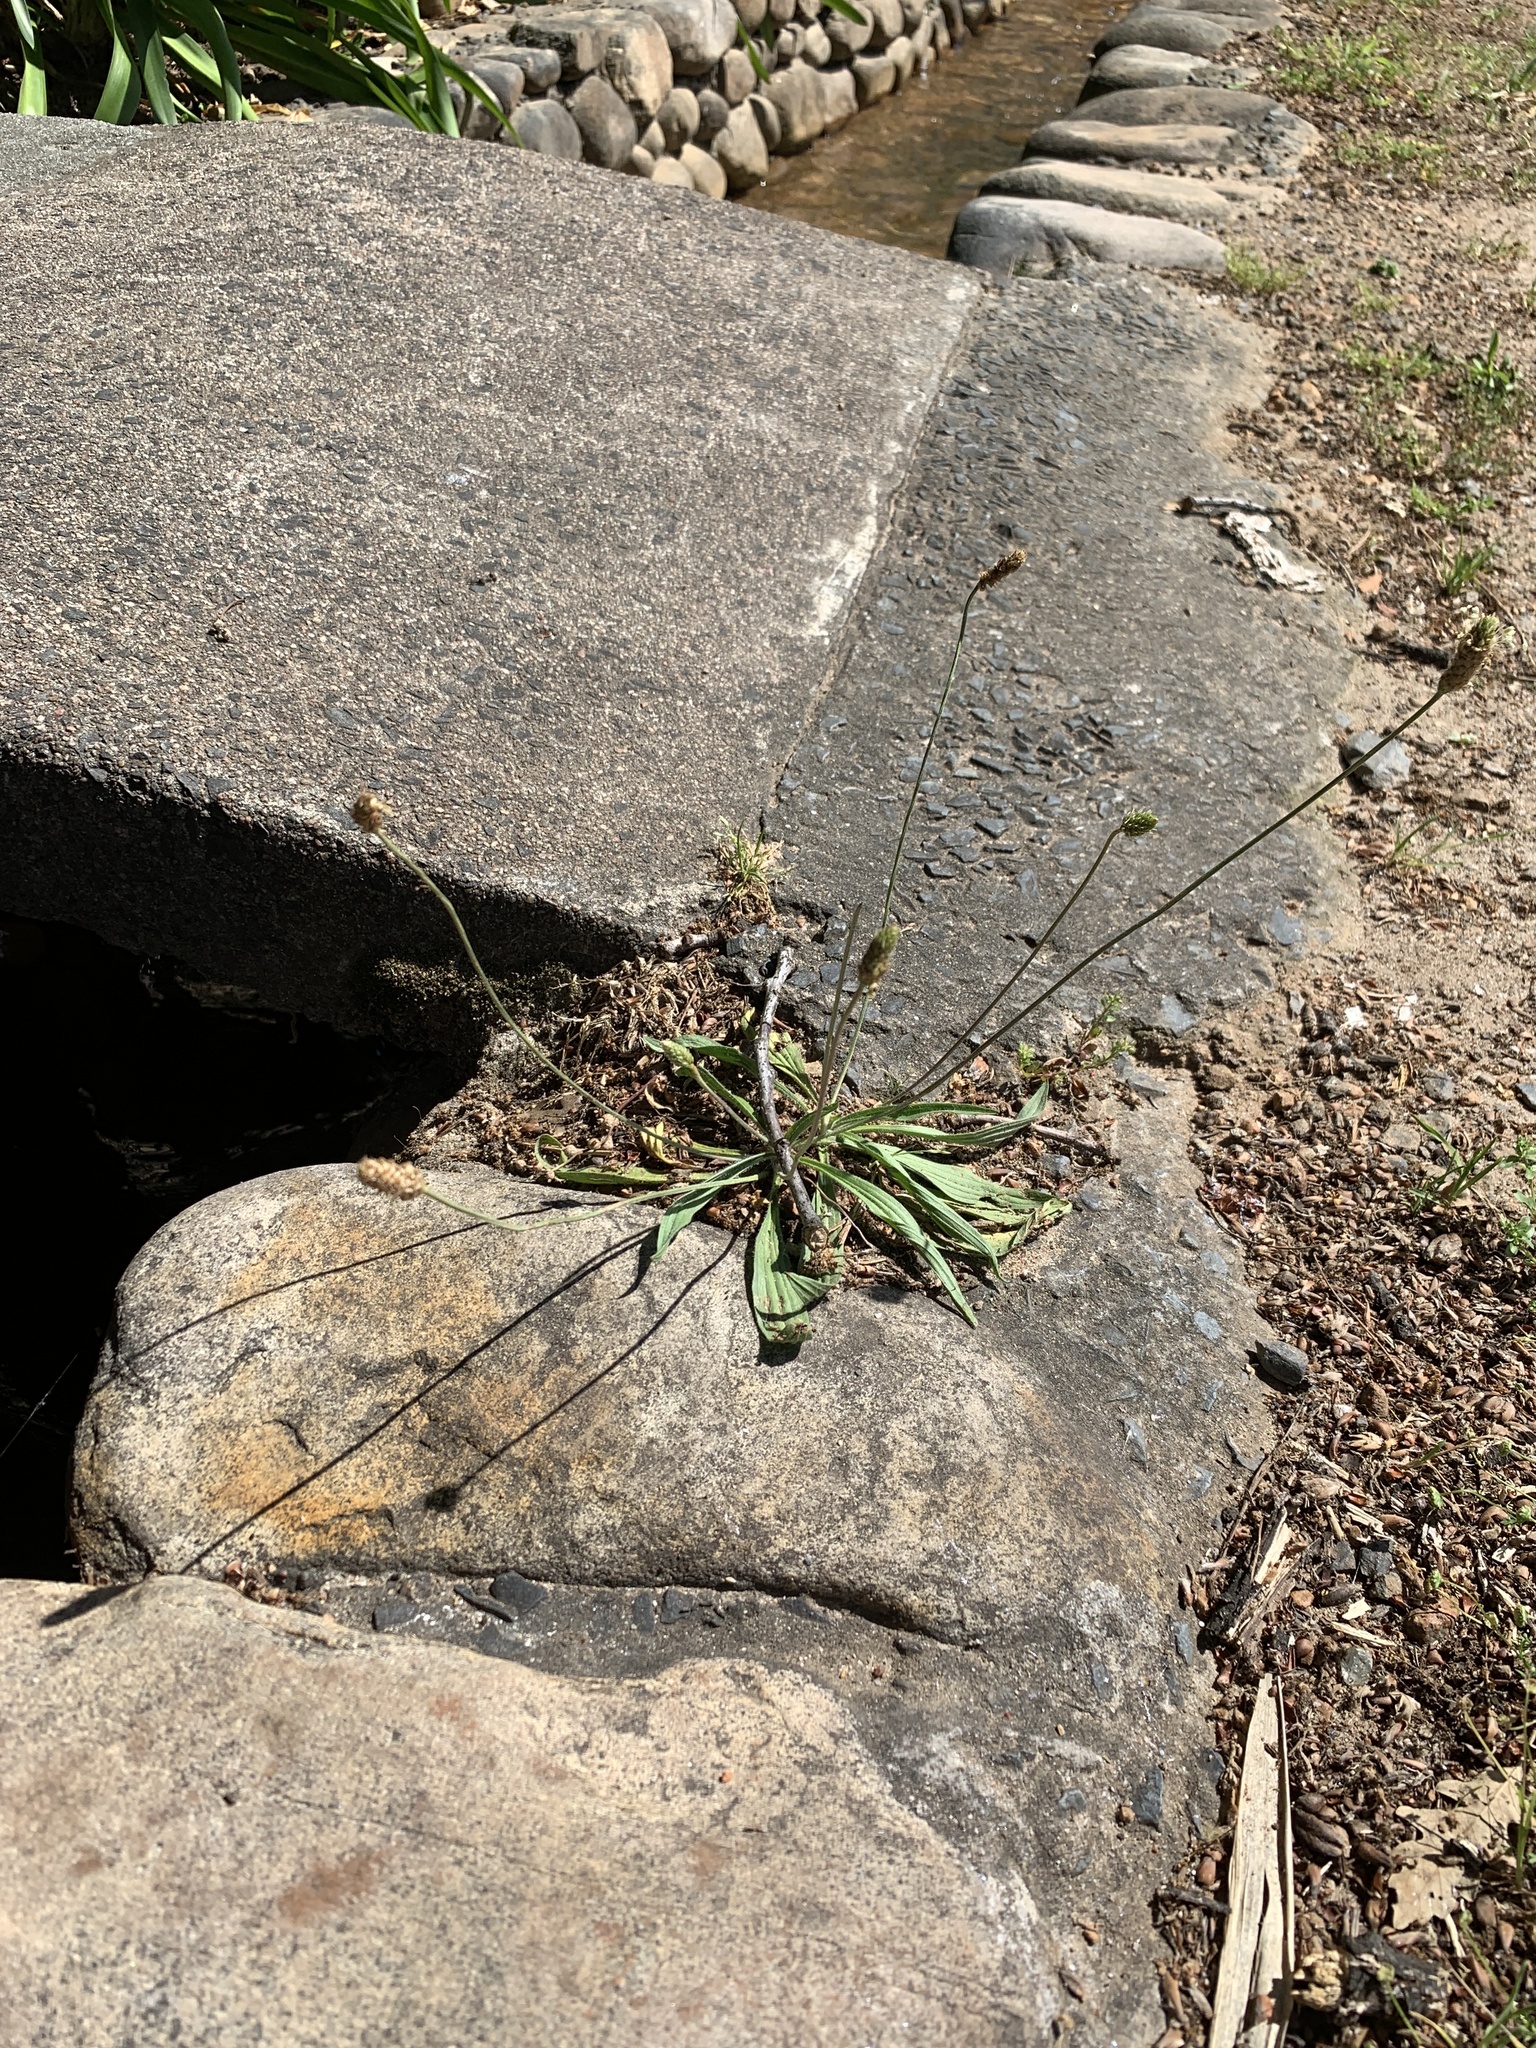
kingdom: Plantae
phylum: Tracheophyta
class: Magnoliopsida
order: Lamiales
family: Plantaginaceae
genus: Plantago
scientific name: Plantago lanceolata
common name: Ribwort plantain
